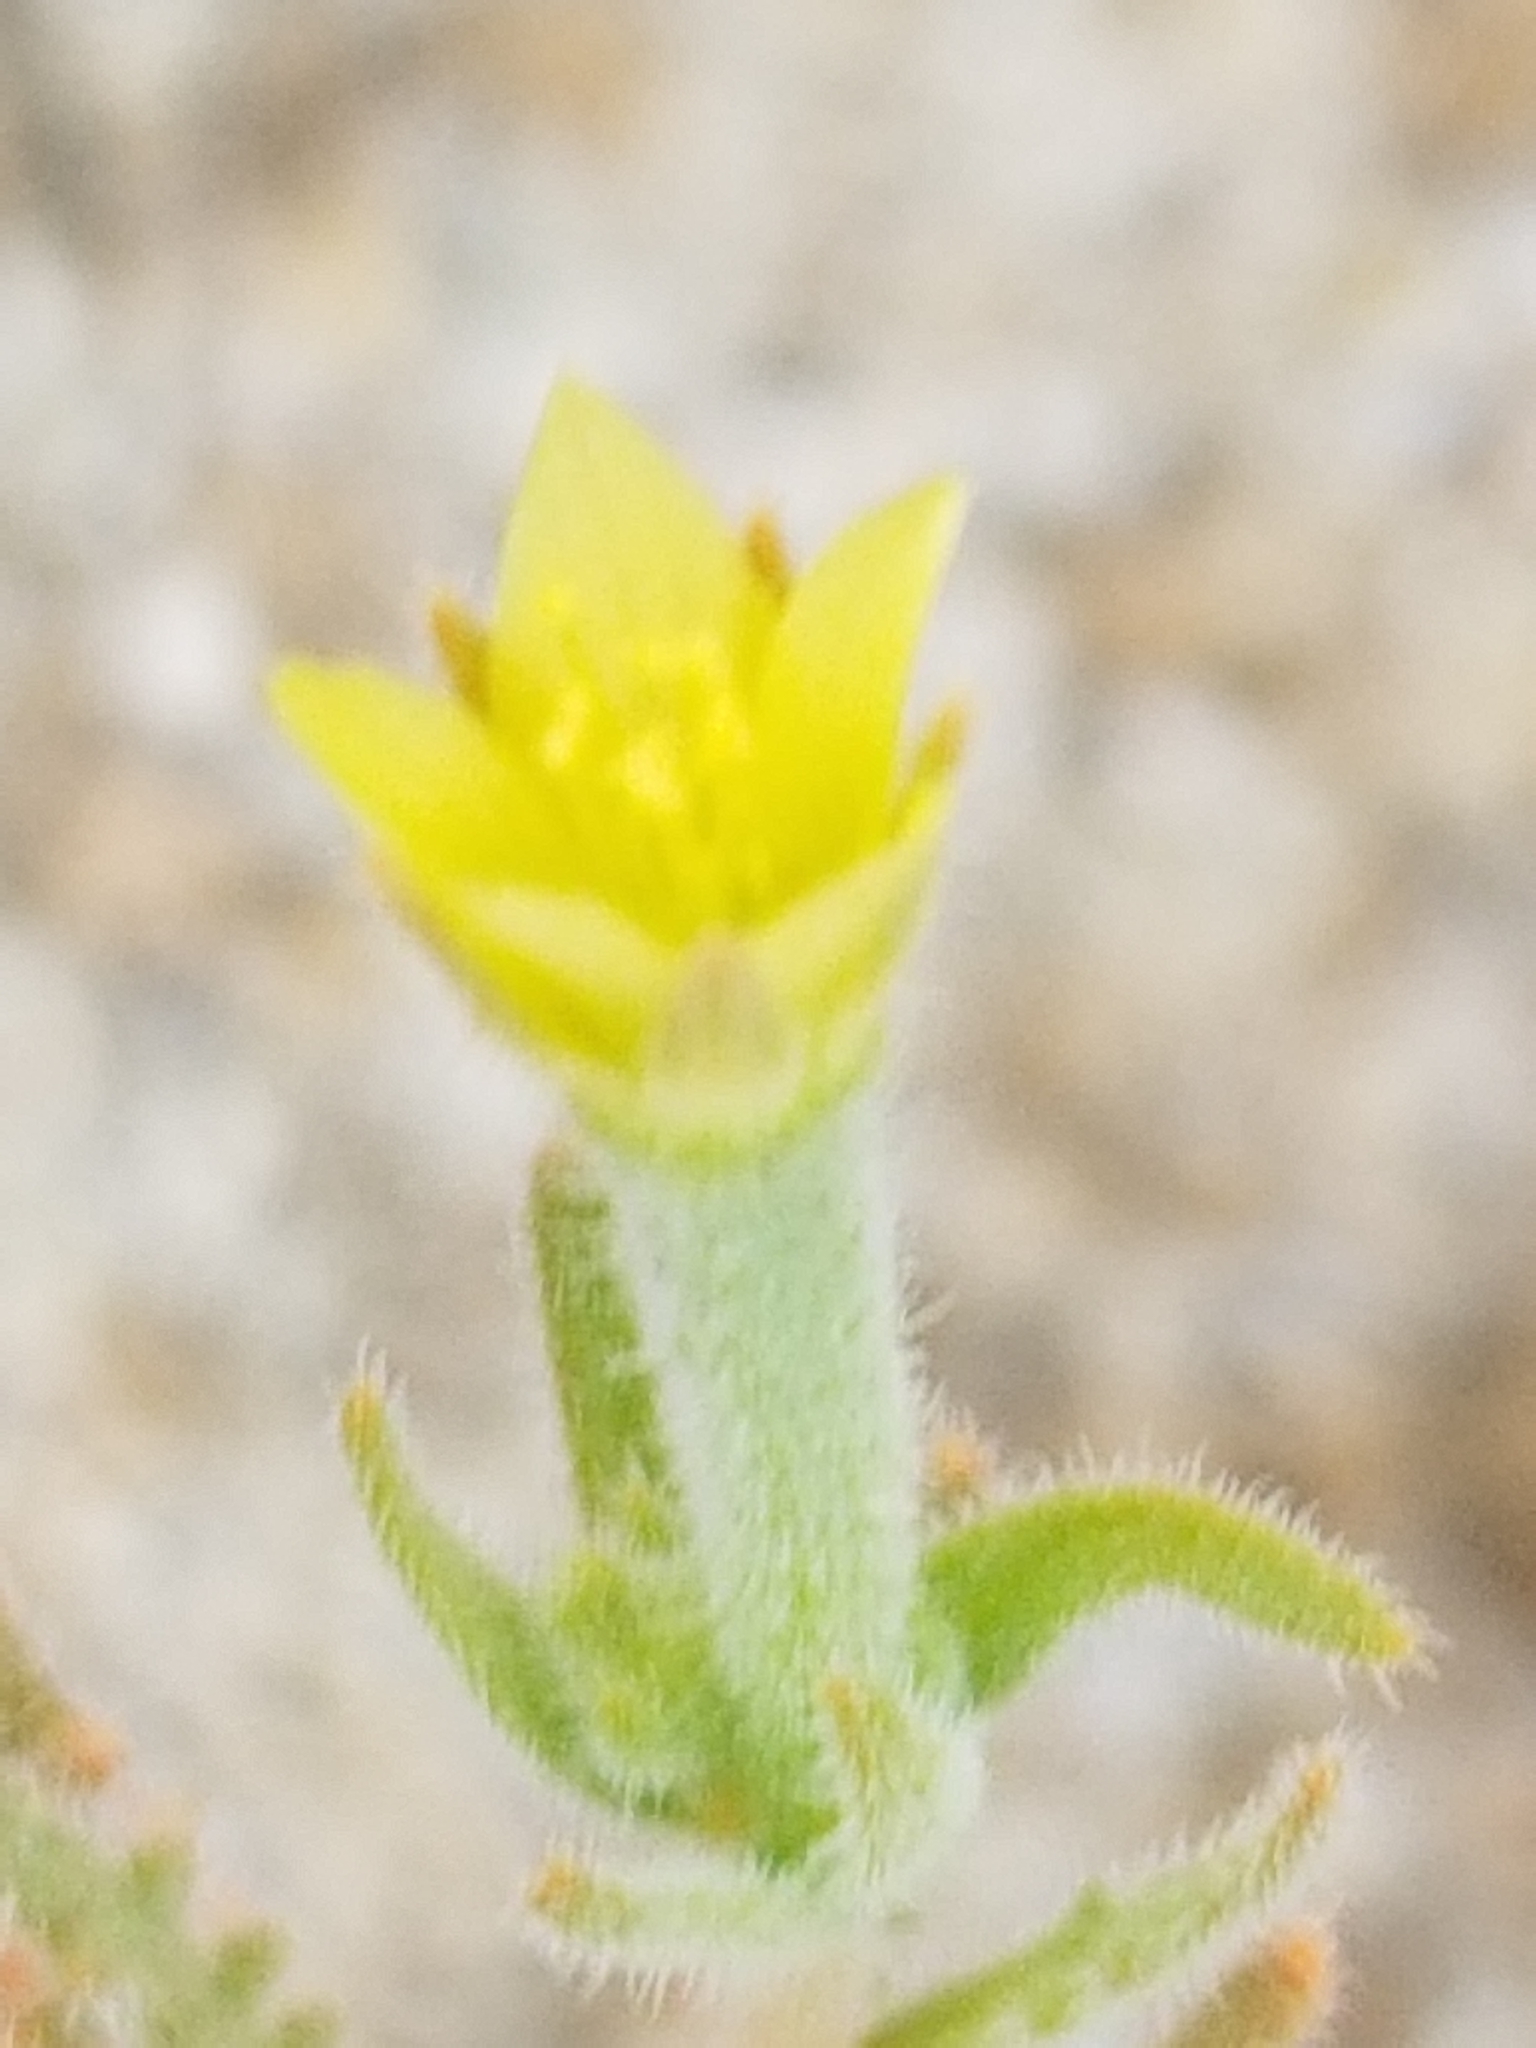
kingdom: Plantae
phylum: Tracheophyta
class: Magnoliopsida
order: Cornales
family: Loasaceae
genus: Mentzelia
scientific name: Mentzelia albicaulis
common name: White-stem blazingstar
